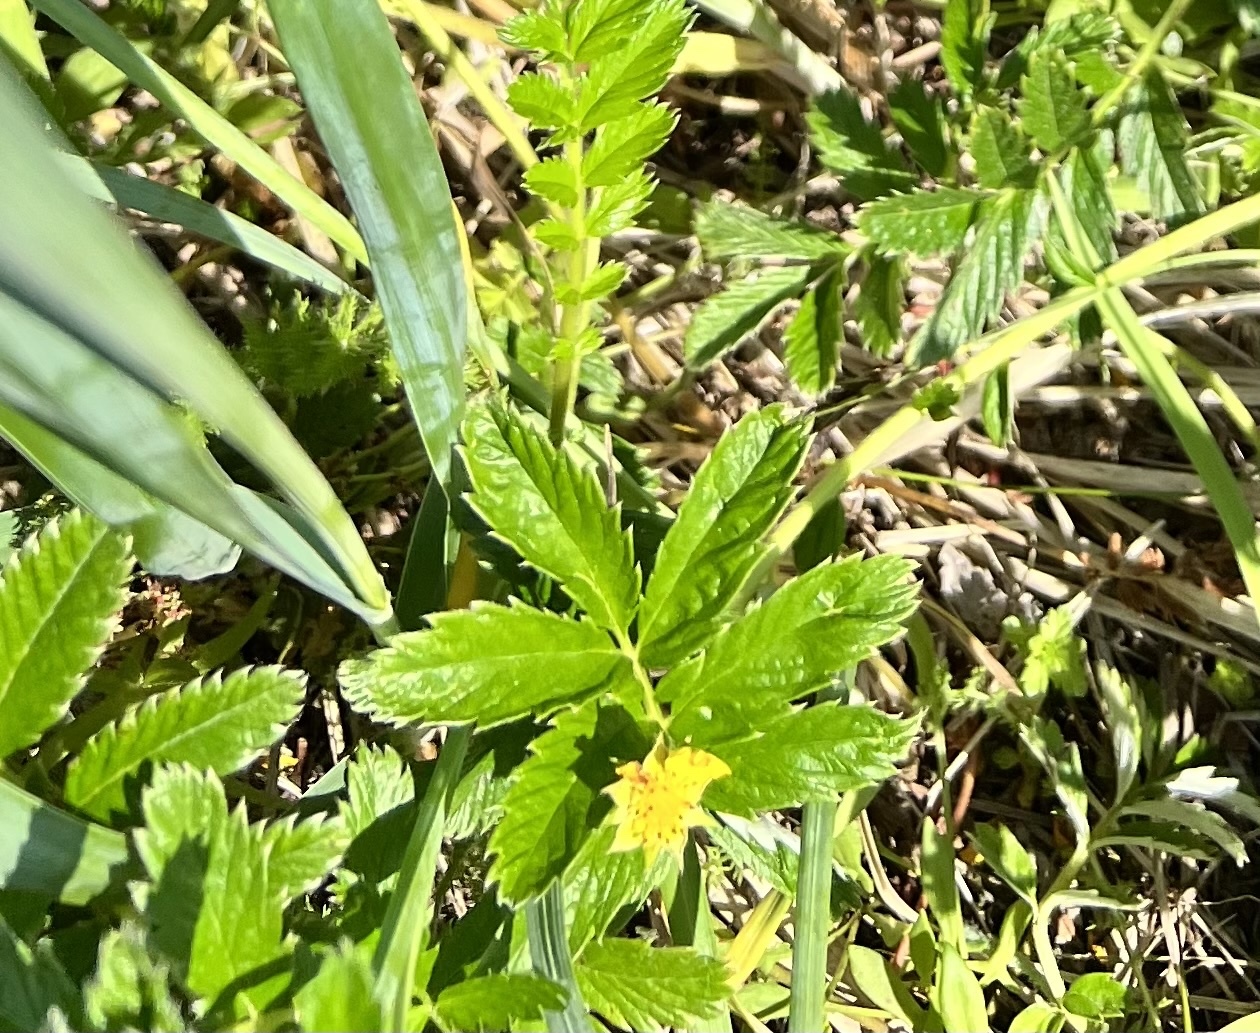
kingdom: Plantae
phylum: Tracheophyta
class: Magnoliopsida
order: Rosales
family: Rosaceae
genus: Argentina
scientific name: Argentina anserina
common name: Common silverweed
